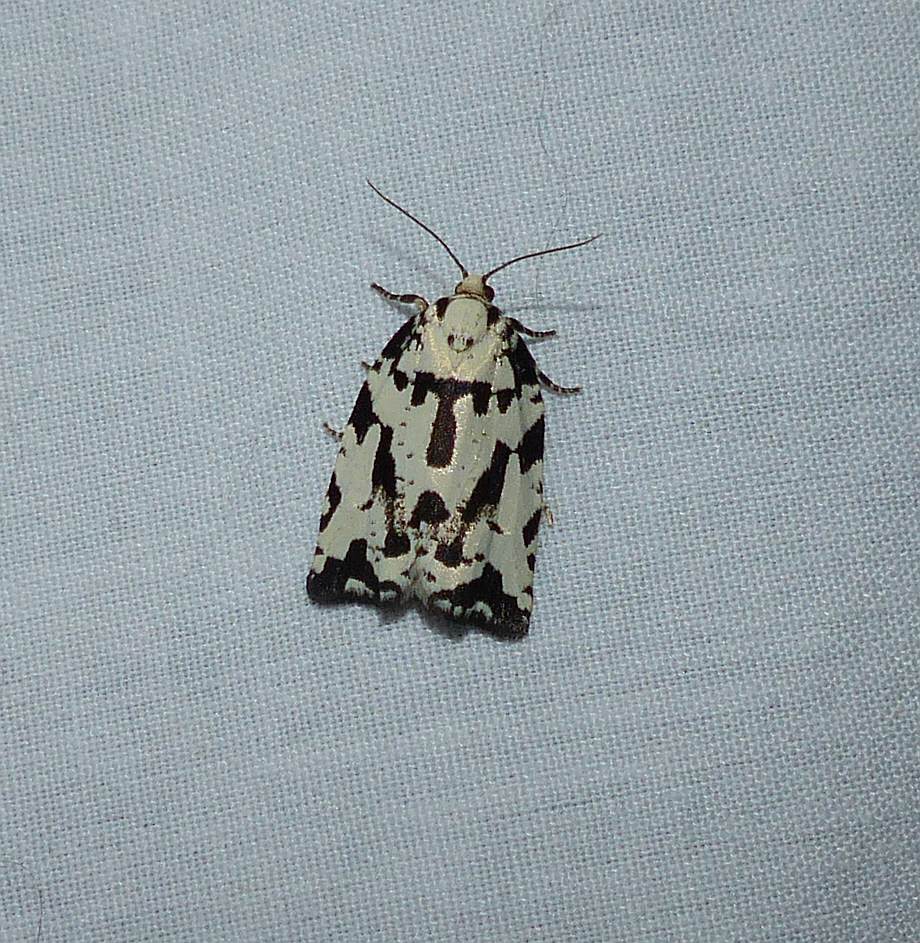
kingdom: Animalia
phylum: Arthropoda
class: Insecta
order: Lepidoptera
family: Tortricidae
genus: Archips
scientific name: Archips dissitana
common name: Boldly-marked archips moth
